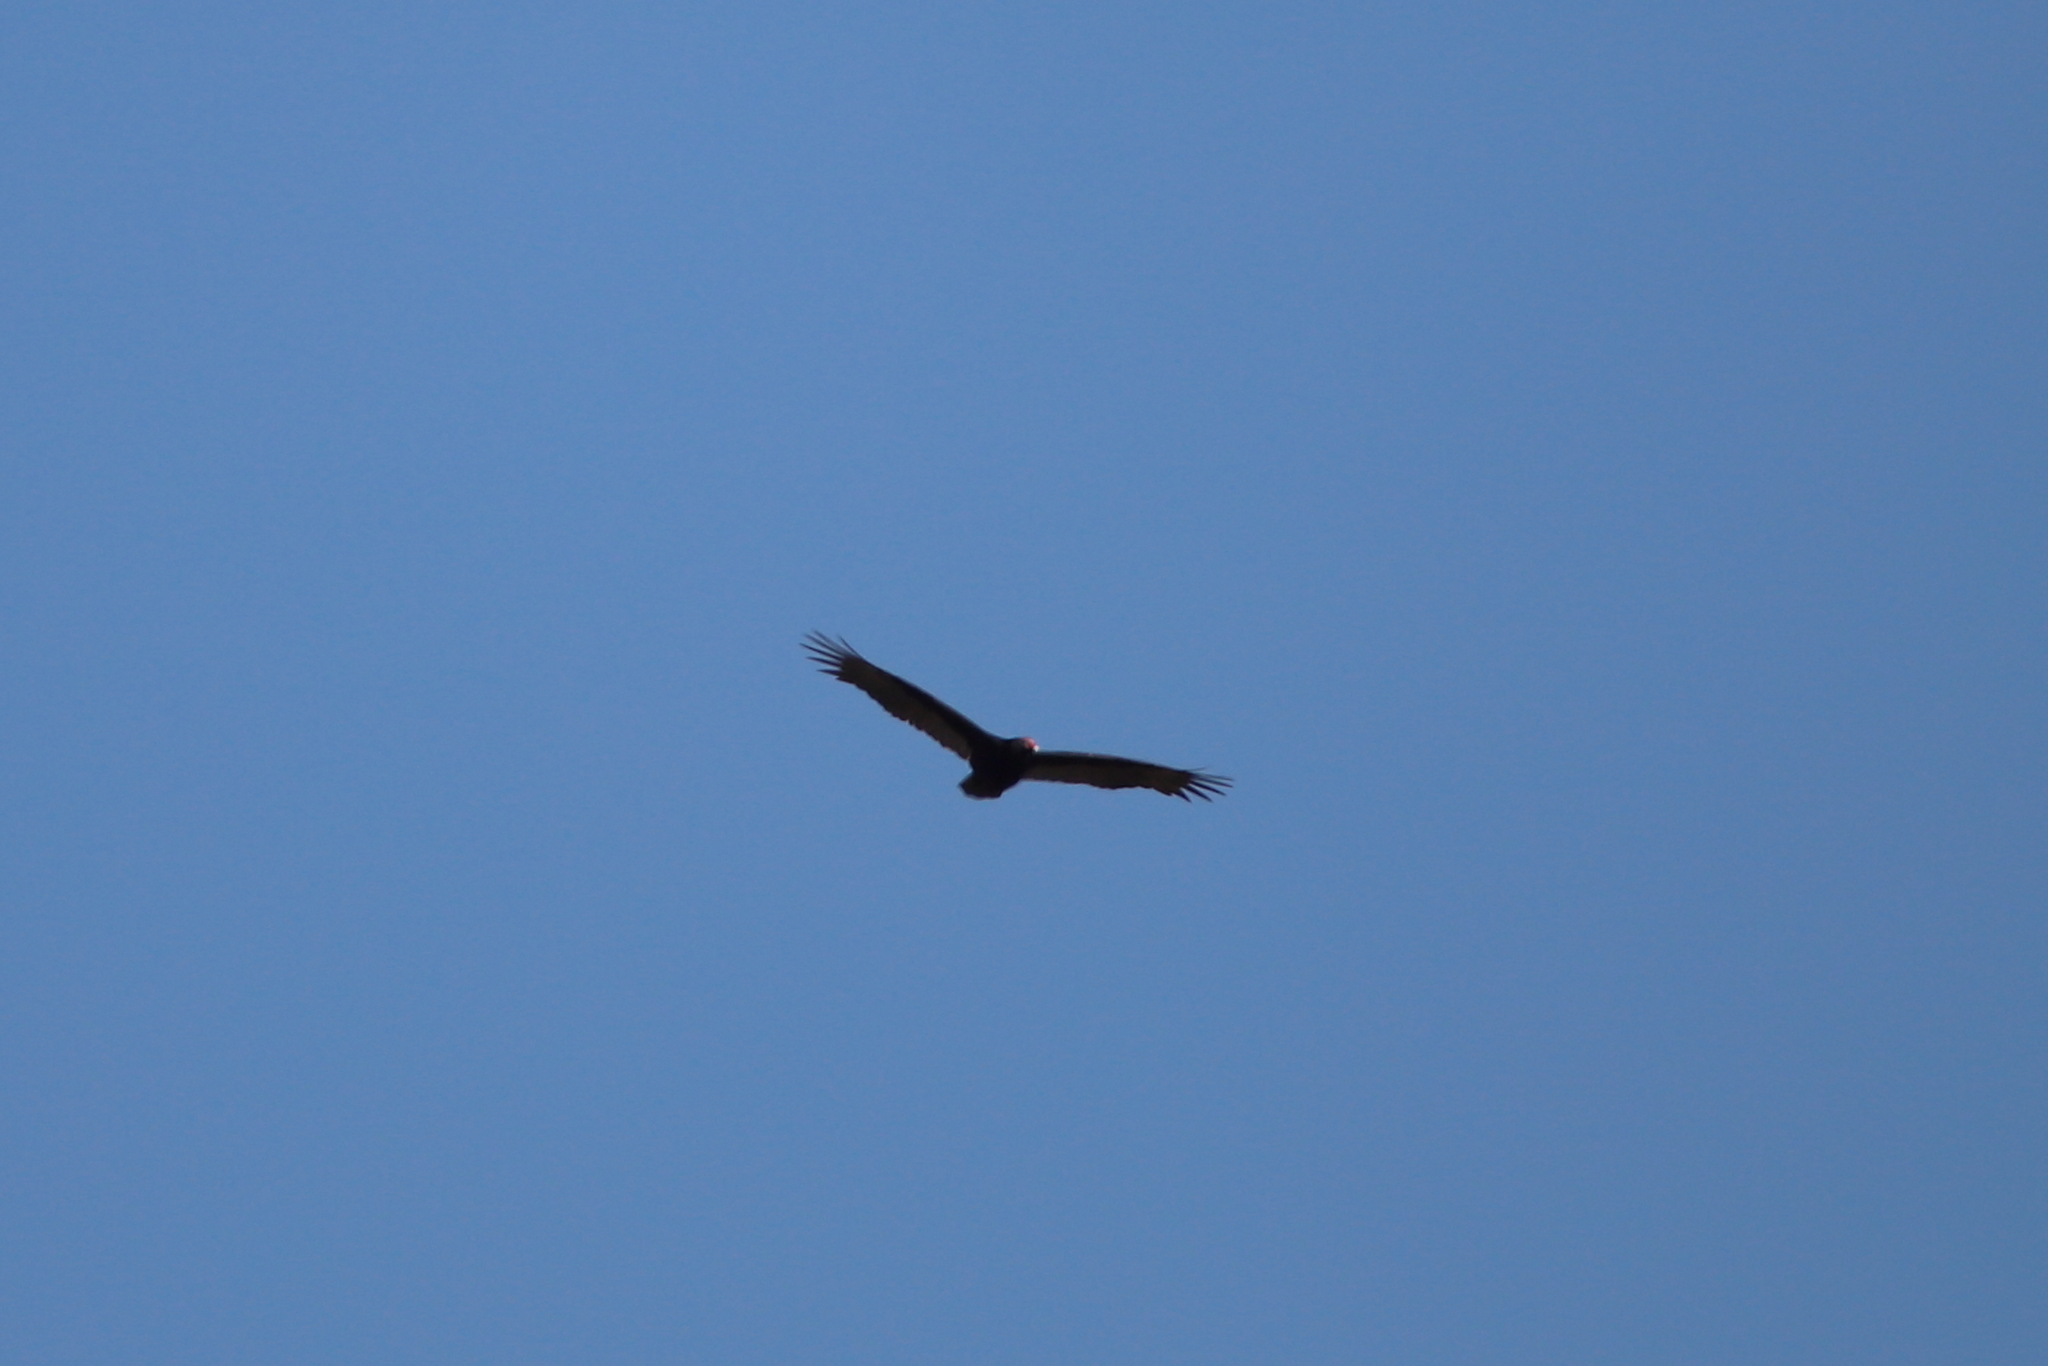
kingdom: Animalia
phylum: Chordata
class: Aves
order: Accipitriformes
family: Cathartidae
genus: Cathartes
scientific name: Cathartes aura
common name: Turkey vulture
